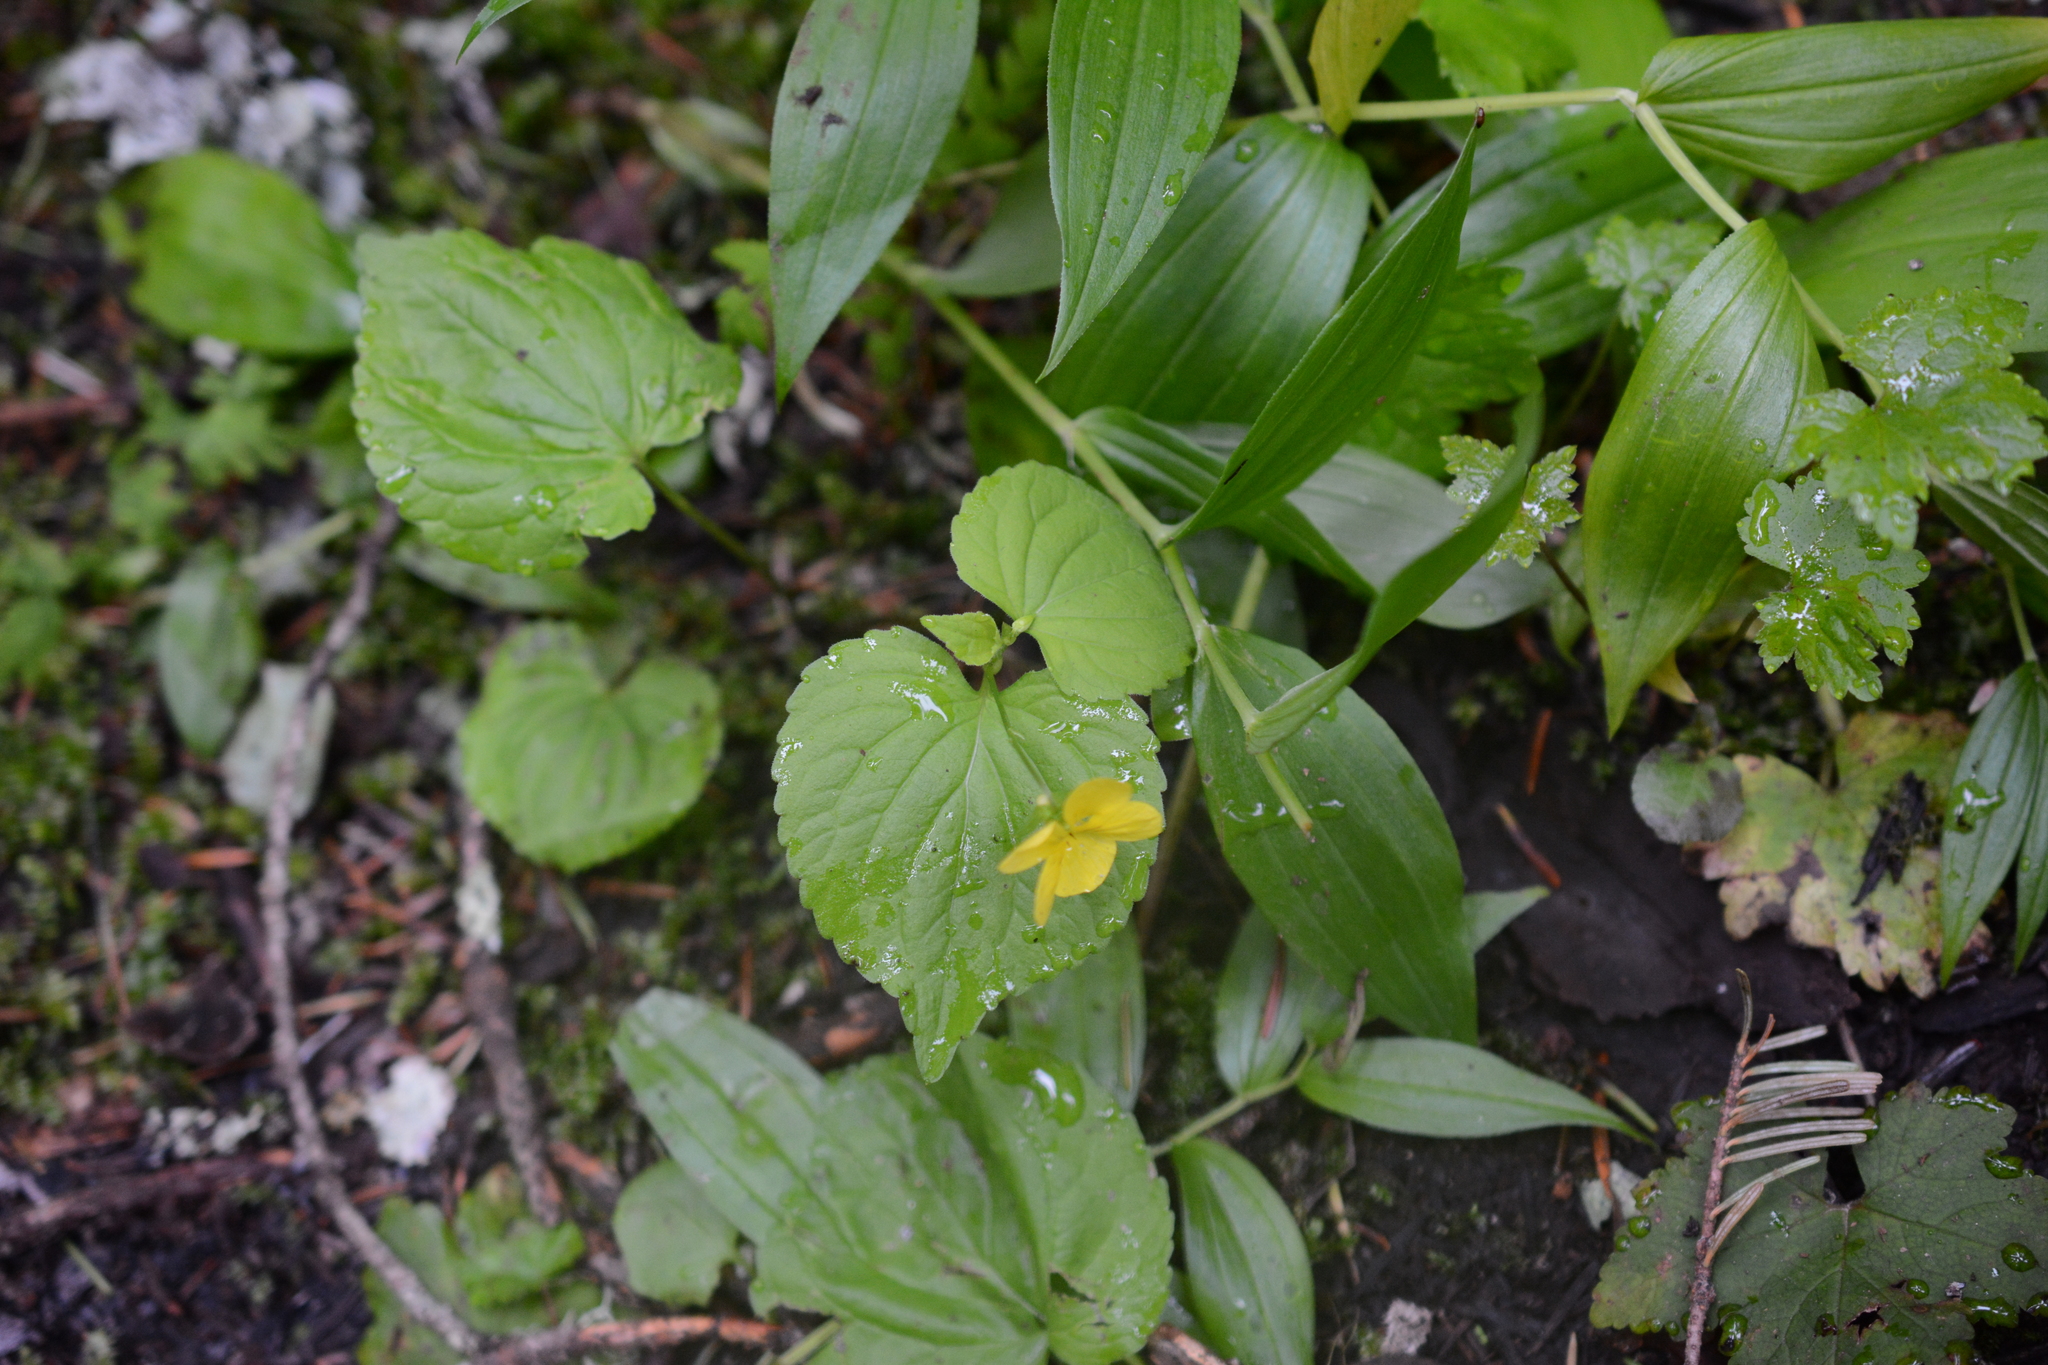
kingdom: Plantae
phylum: Tracheophyta
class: Magnoliopsida
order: Malpighiales
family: Violaceae
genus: Viola
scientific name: Viola glabella
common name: Stream violet
